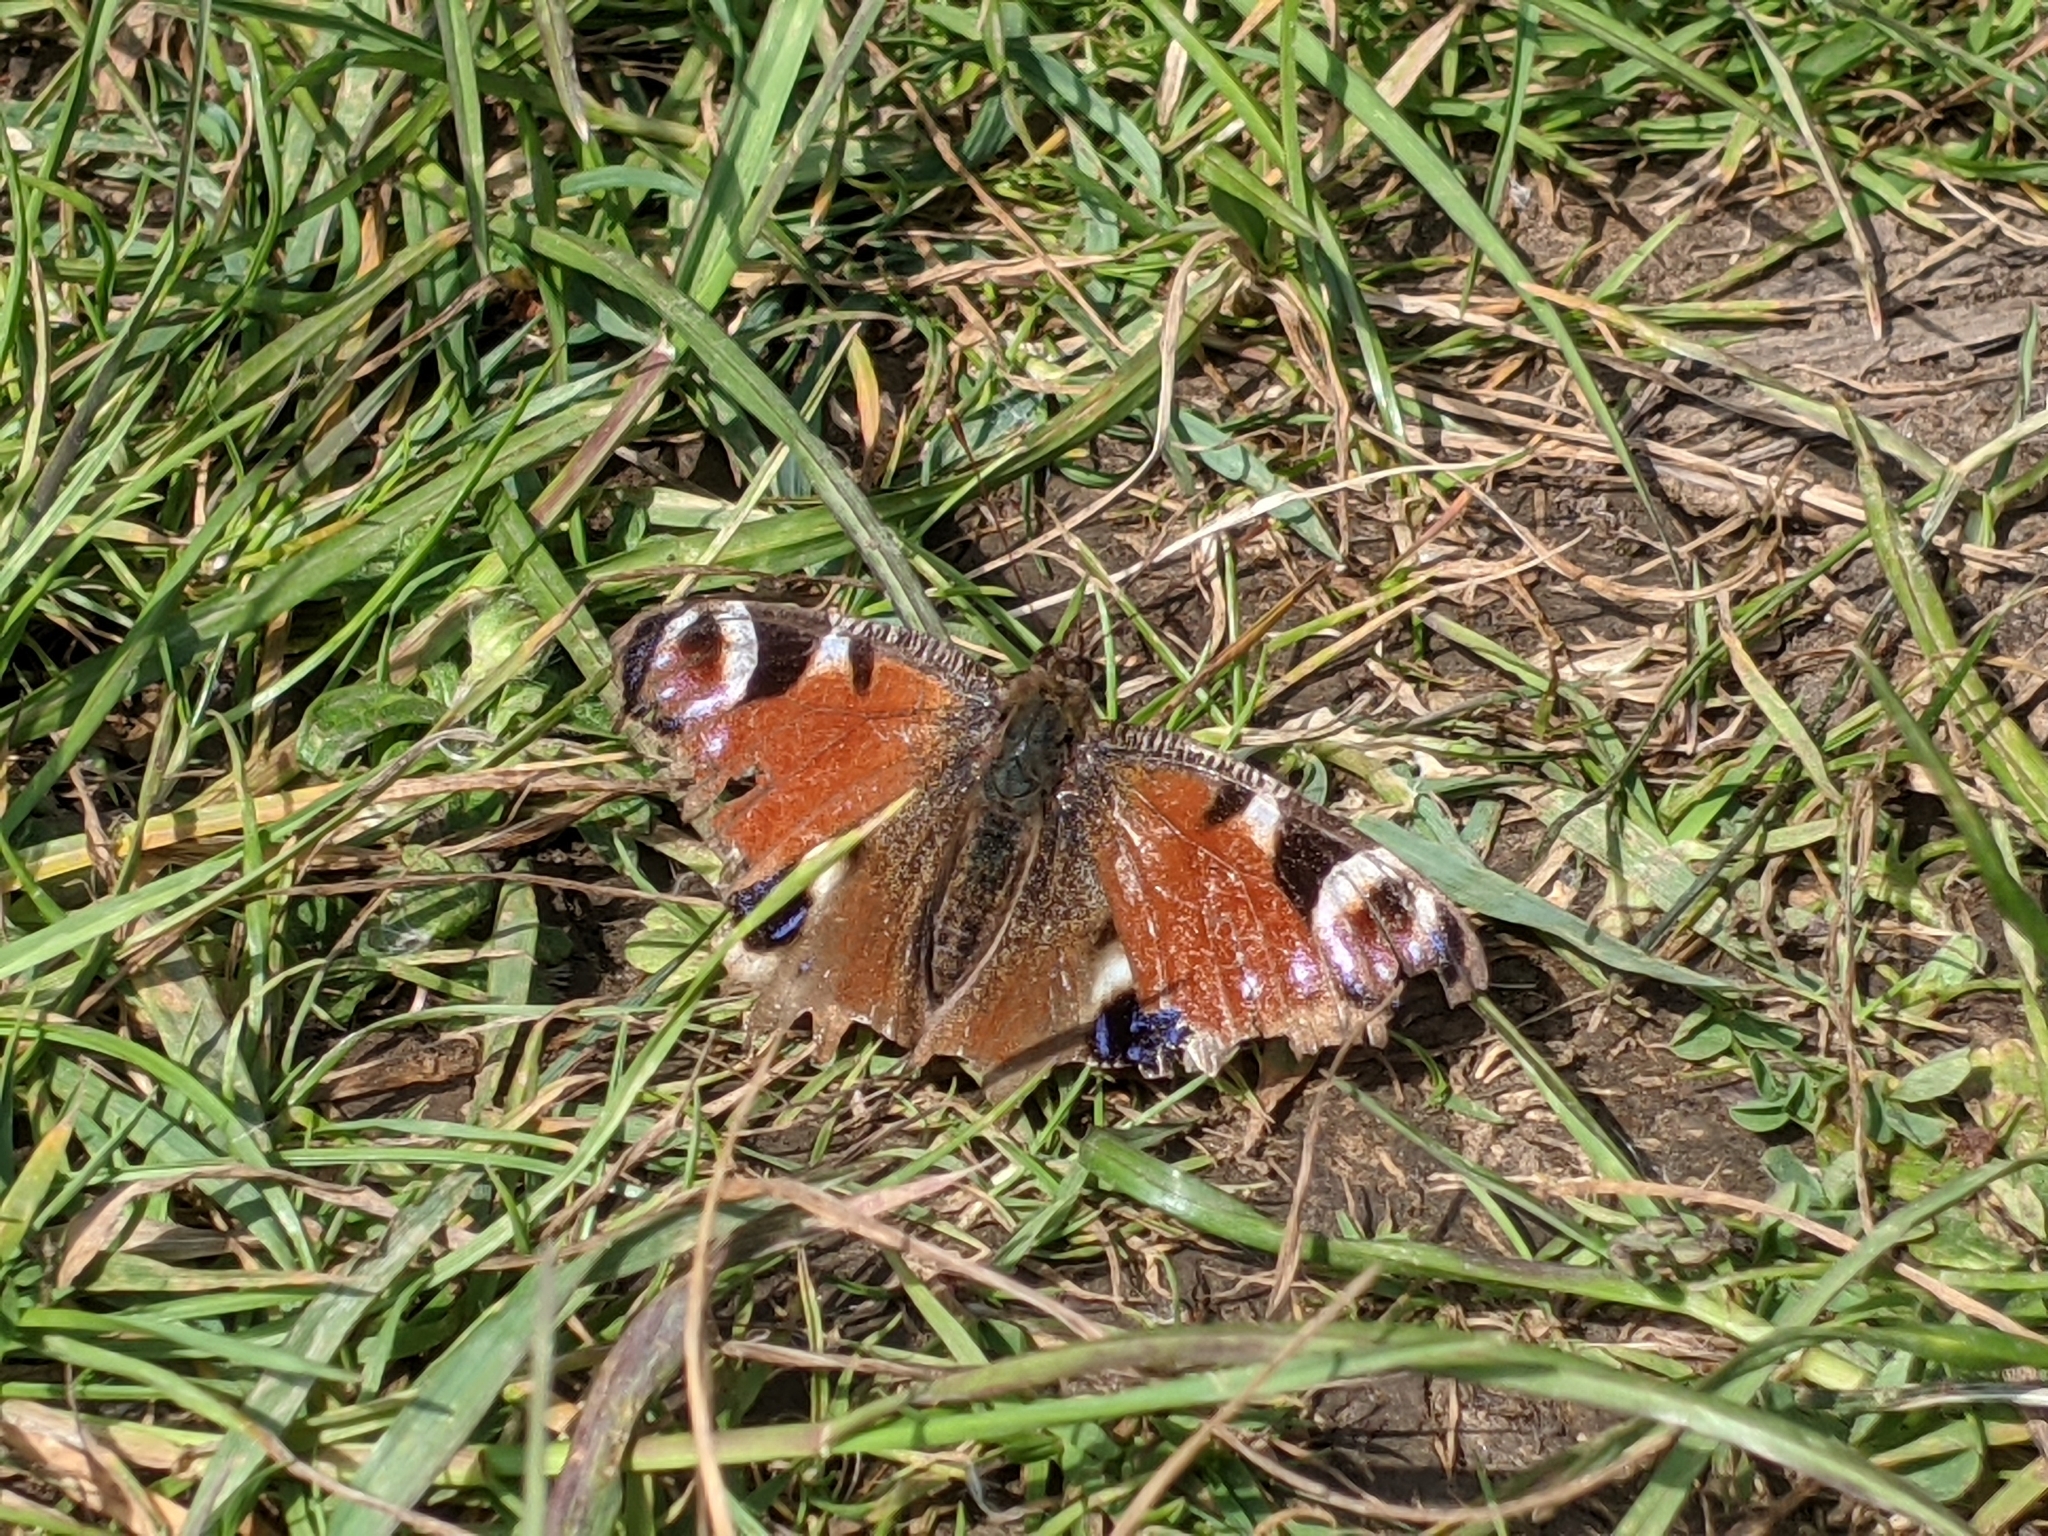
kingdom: Animalia
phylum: Arthropoda
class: Insecta
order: Lepidoptera
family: Nymphalidae
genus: Aglais
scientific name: Aglais io
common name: Peacock
